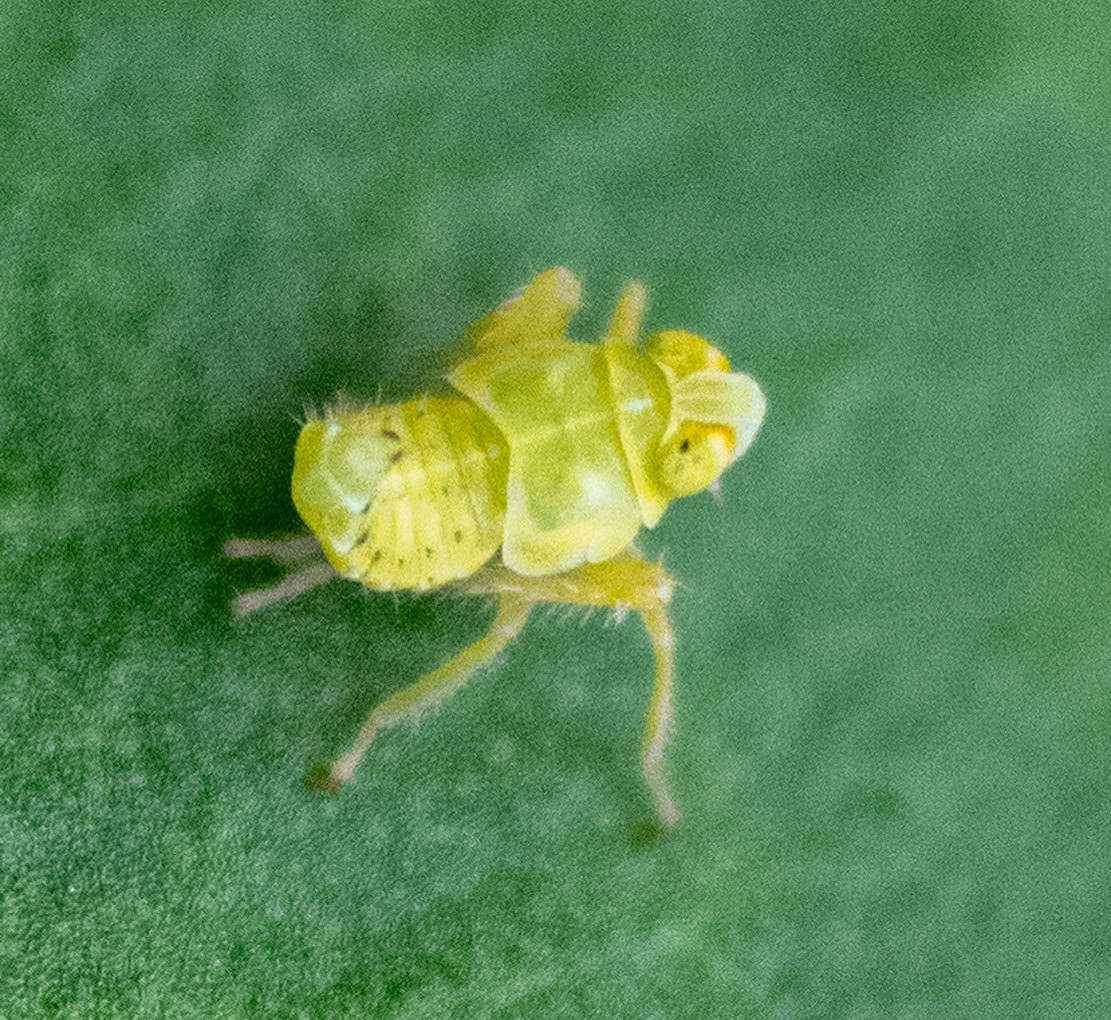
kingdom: Animalia
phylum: Arthropoda
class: Insecta
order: Hemiptera
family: Cicadellidae
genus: Jikradia
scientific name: Jikradia olitoria
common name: Coppery leafhopper
